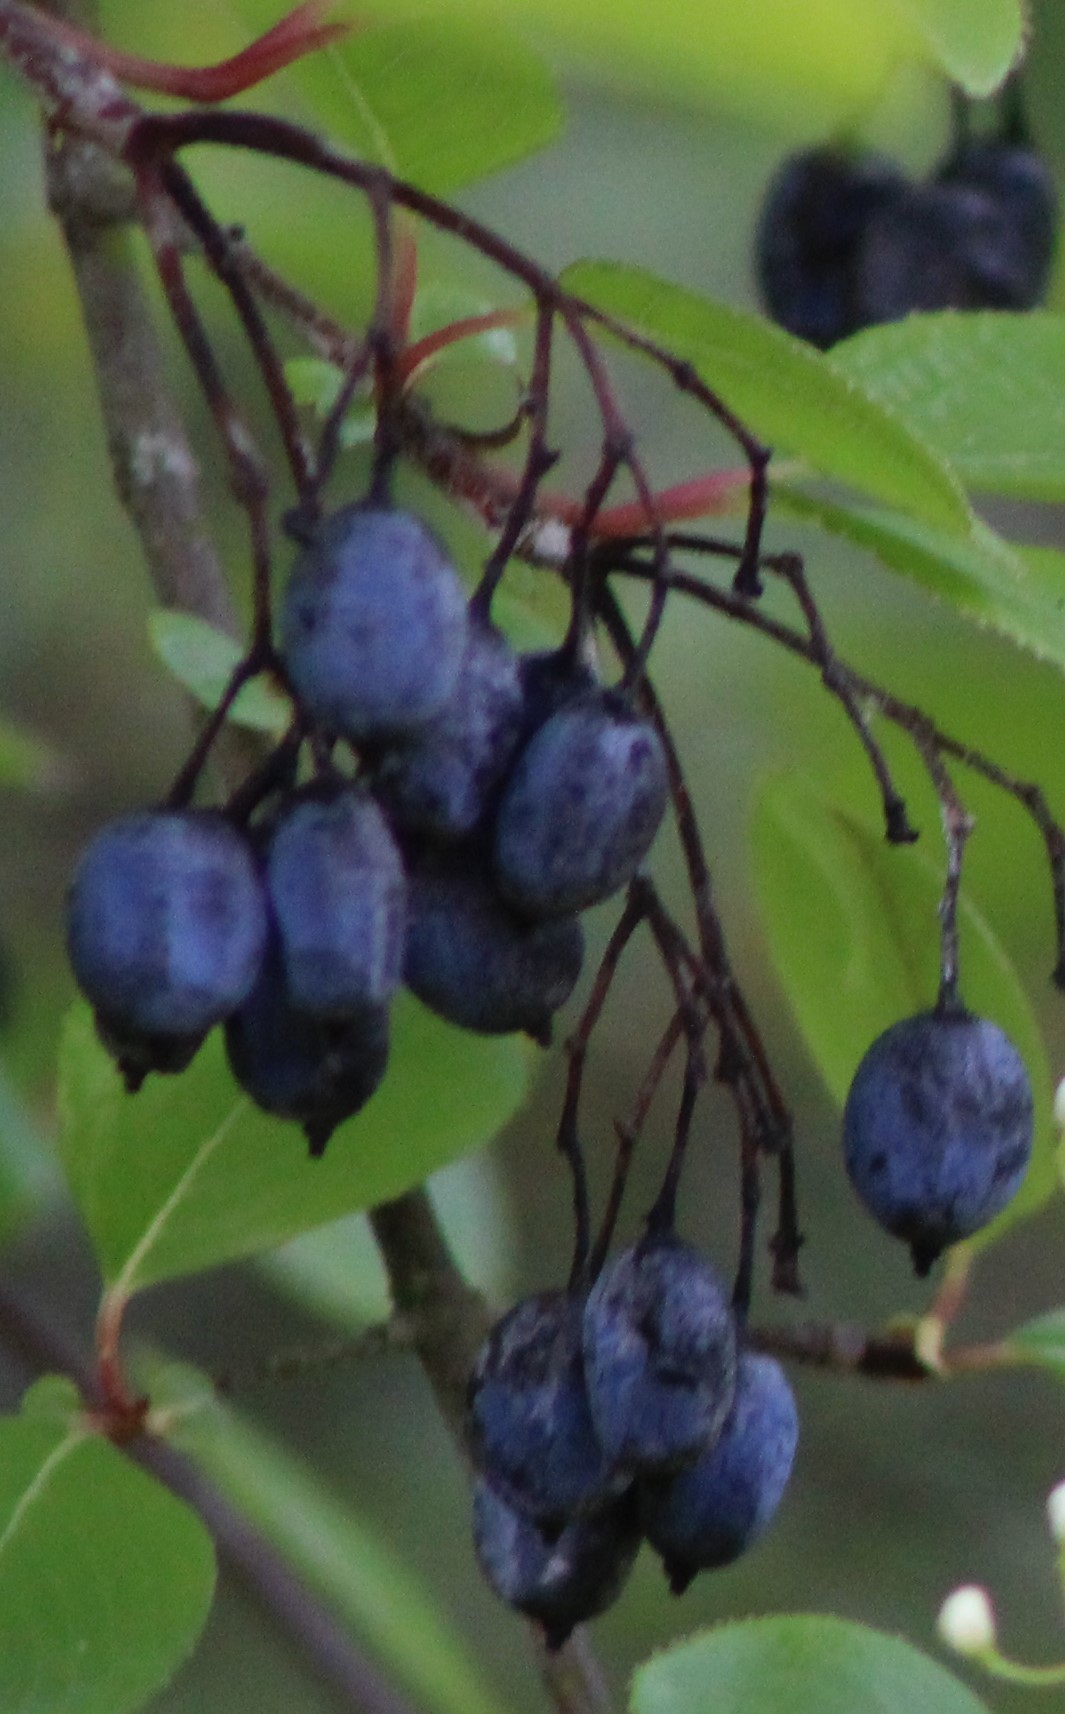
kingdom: Plantae
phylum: Tracheophyta
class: Magnoliopsida
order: Dipsacales
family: Viburnaceae
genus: Viburnum
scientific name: Viburnum rufidulum
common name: Blue haw
